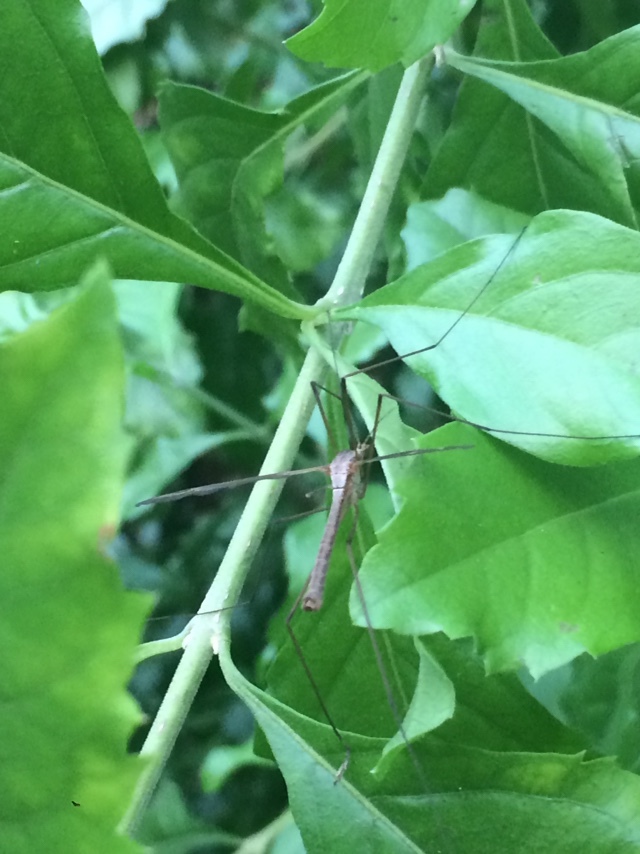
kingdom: Animalia
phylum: Arthropoda
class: Insecta
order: Diptera
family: Tipulidae
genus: Tipula
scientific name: Tipula
